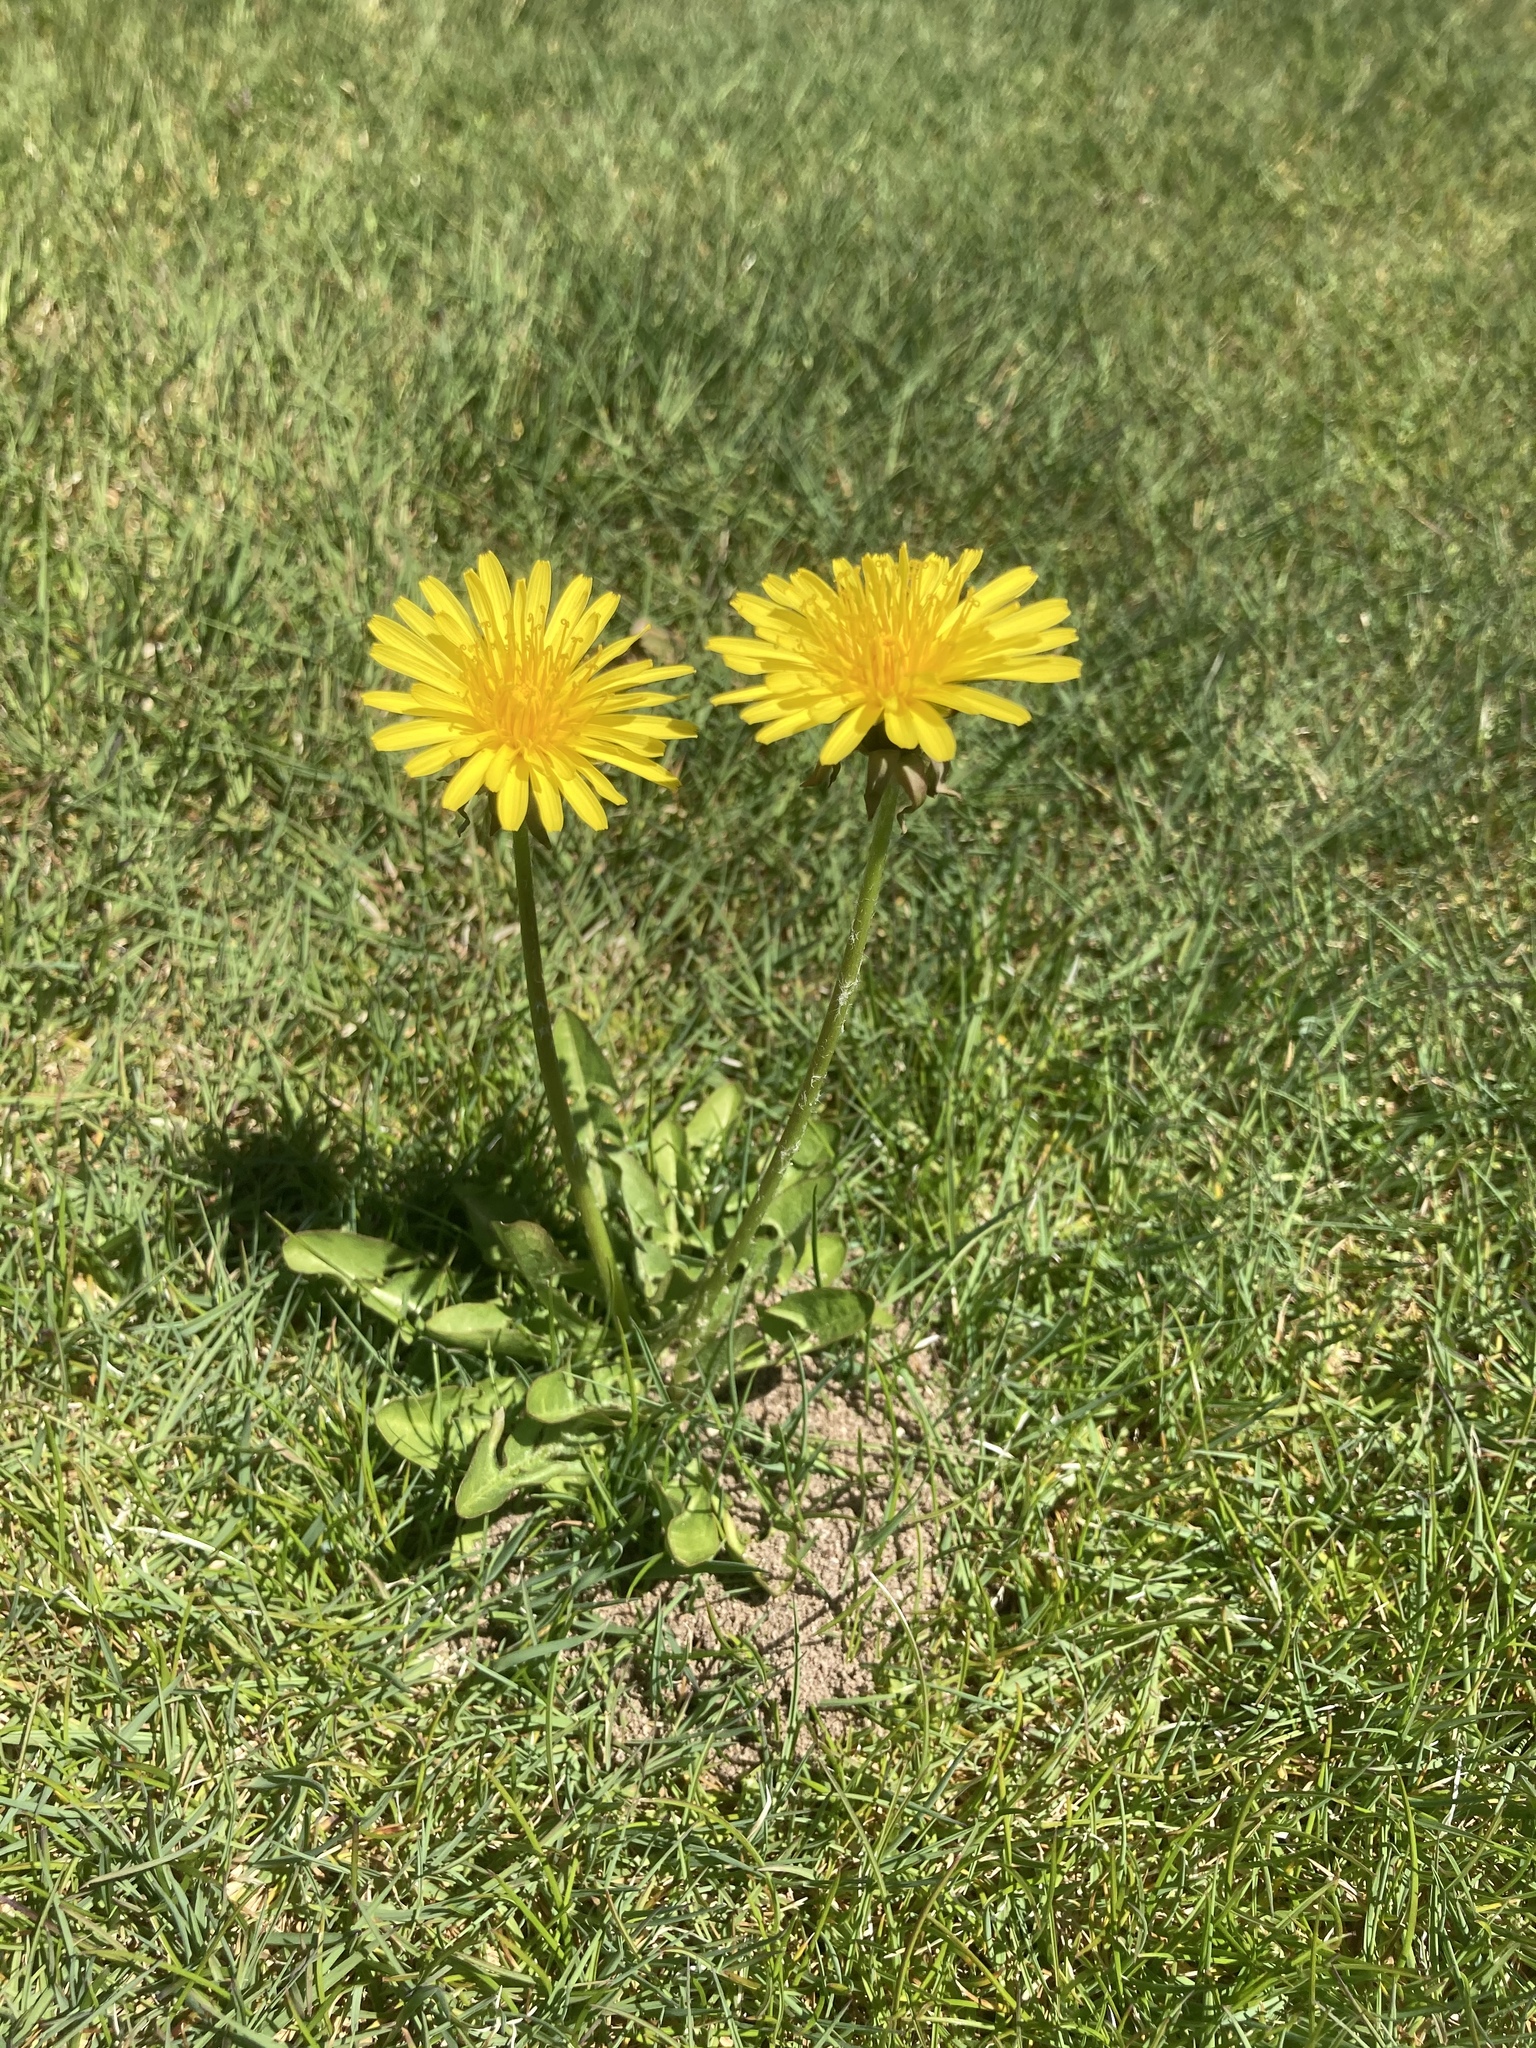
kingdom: Plantae
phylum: Tracheophyta
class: Magnoliopsida
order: Asterales
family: Asteraceae
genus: Taraxacum
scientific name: Taraxacum officinale
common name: Common dandelion
